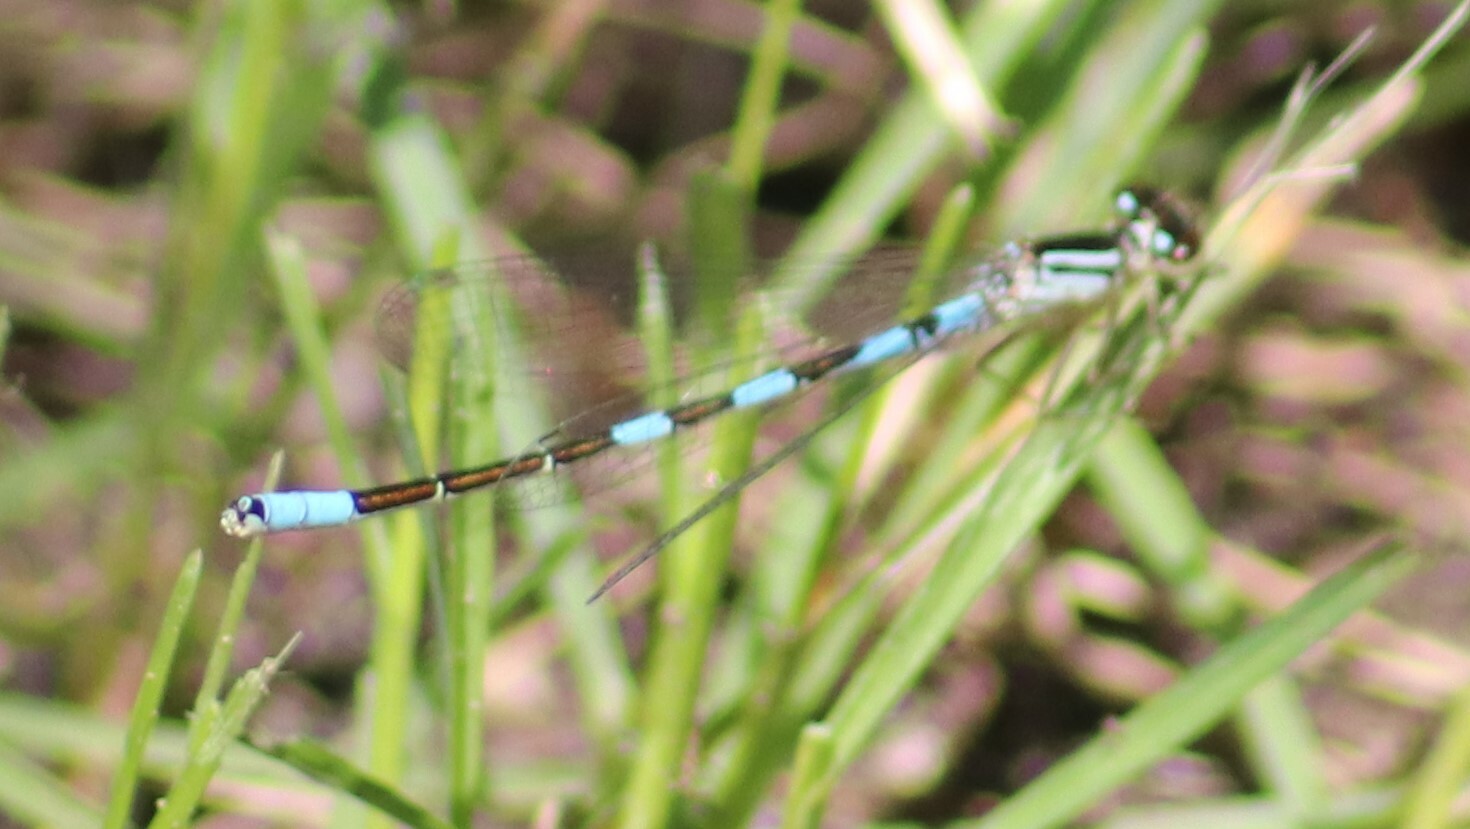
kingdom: Animalia
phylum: Arthropoda
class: Insecta
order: Odonata
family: Coenagrionidae
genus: Coenagrion
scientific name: Coenagrion resolutum
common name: Taiga bluet
